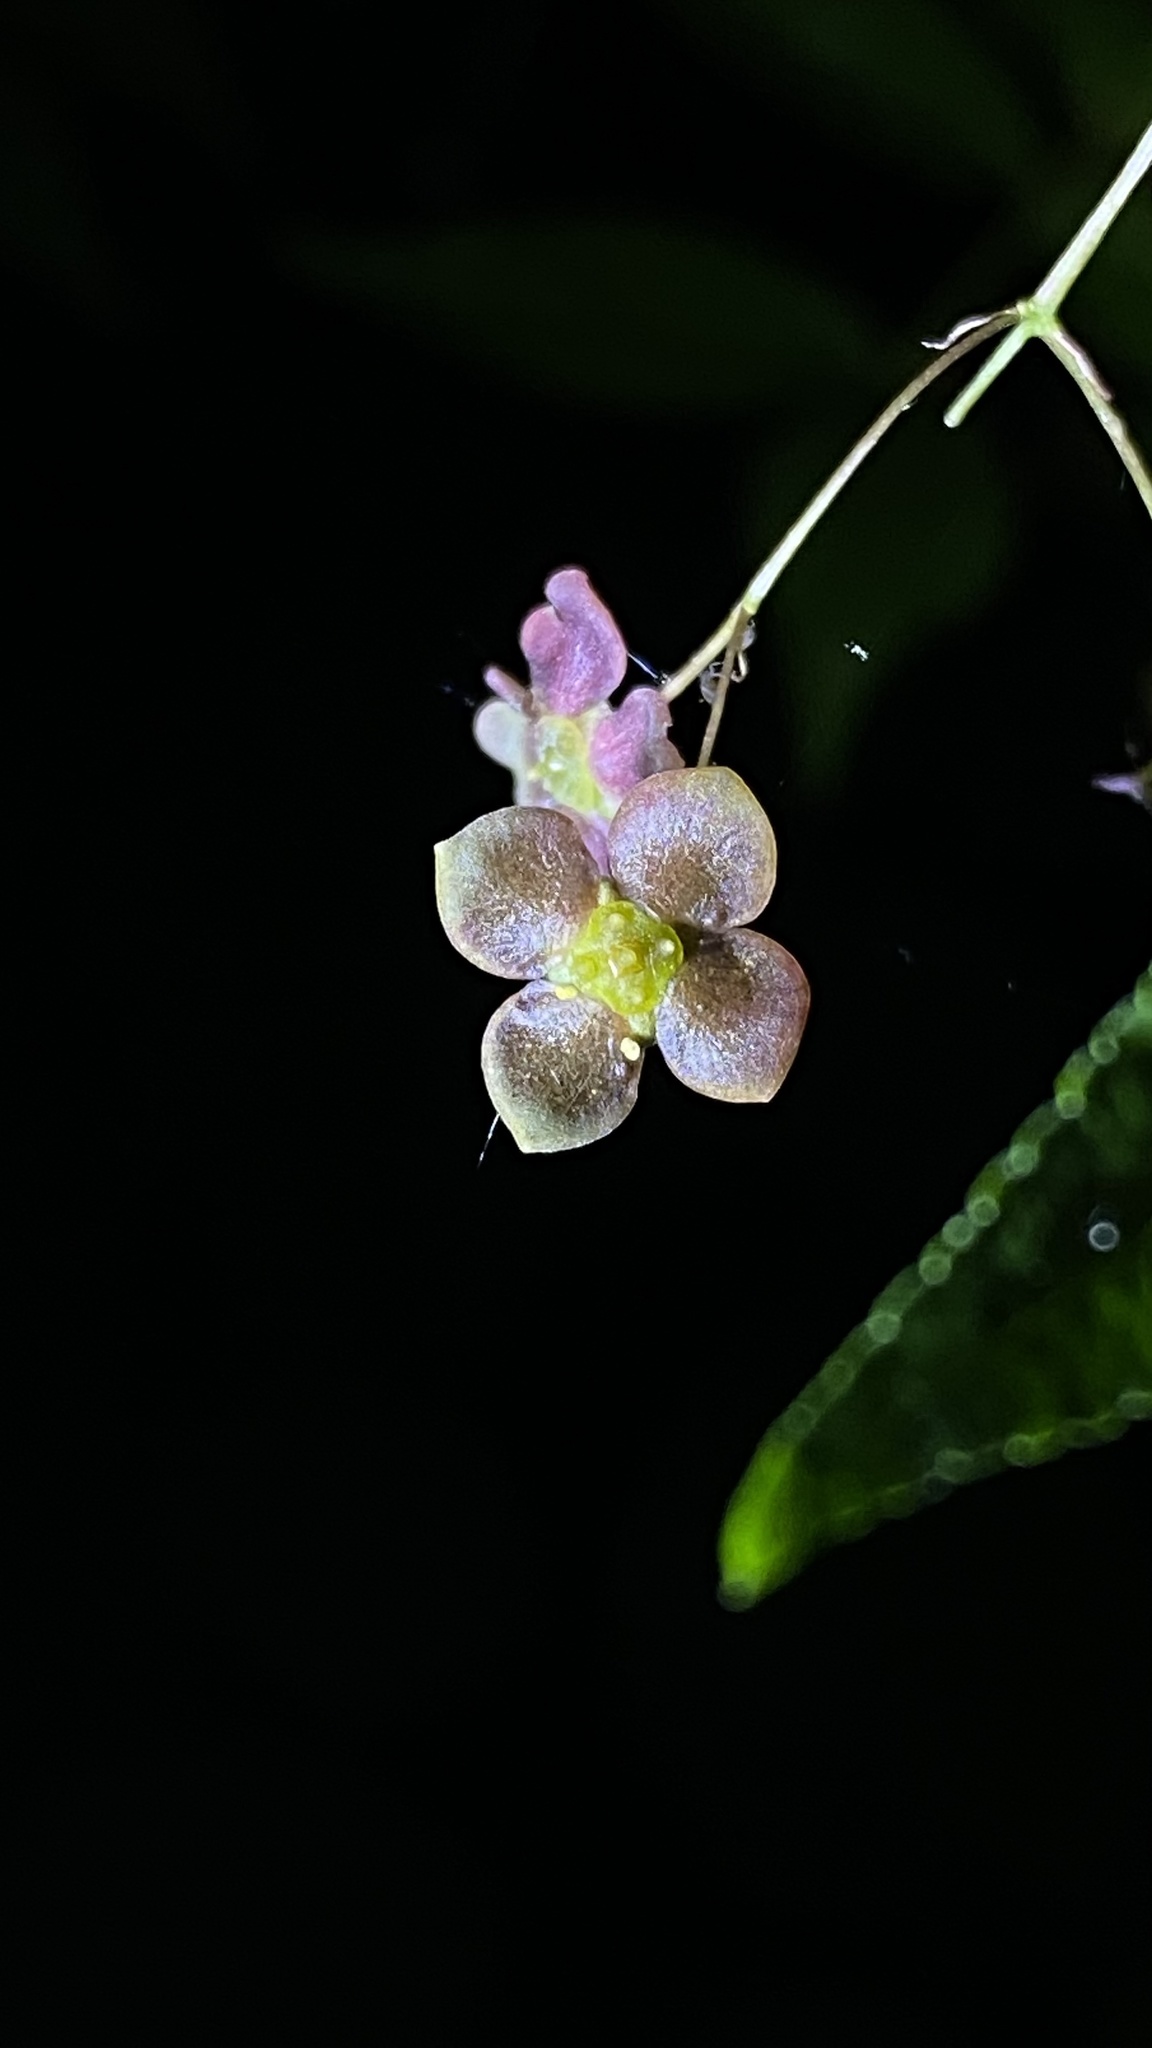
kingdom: Plantae
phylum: Tracheophyta
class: Magnoliopsida
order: Celastrales
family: Celastraceae
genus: Euonymus
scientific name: Euonymus verrucosus
